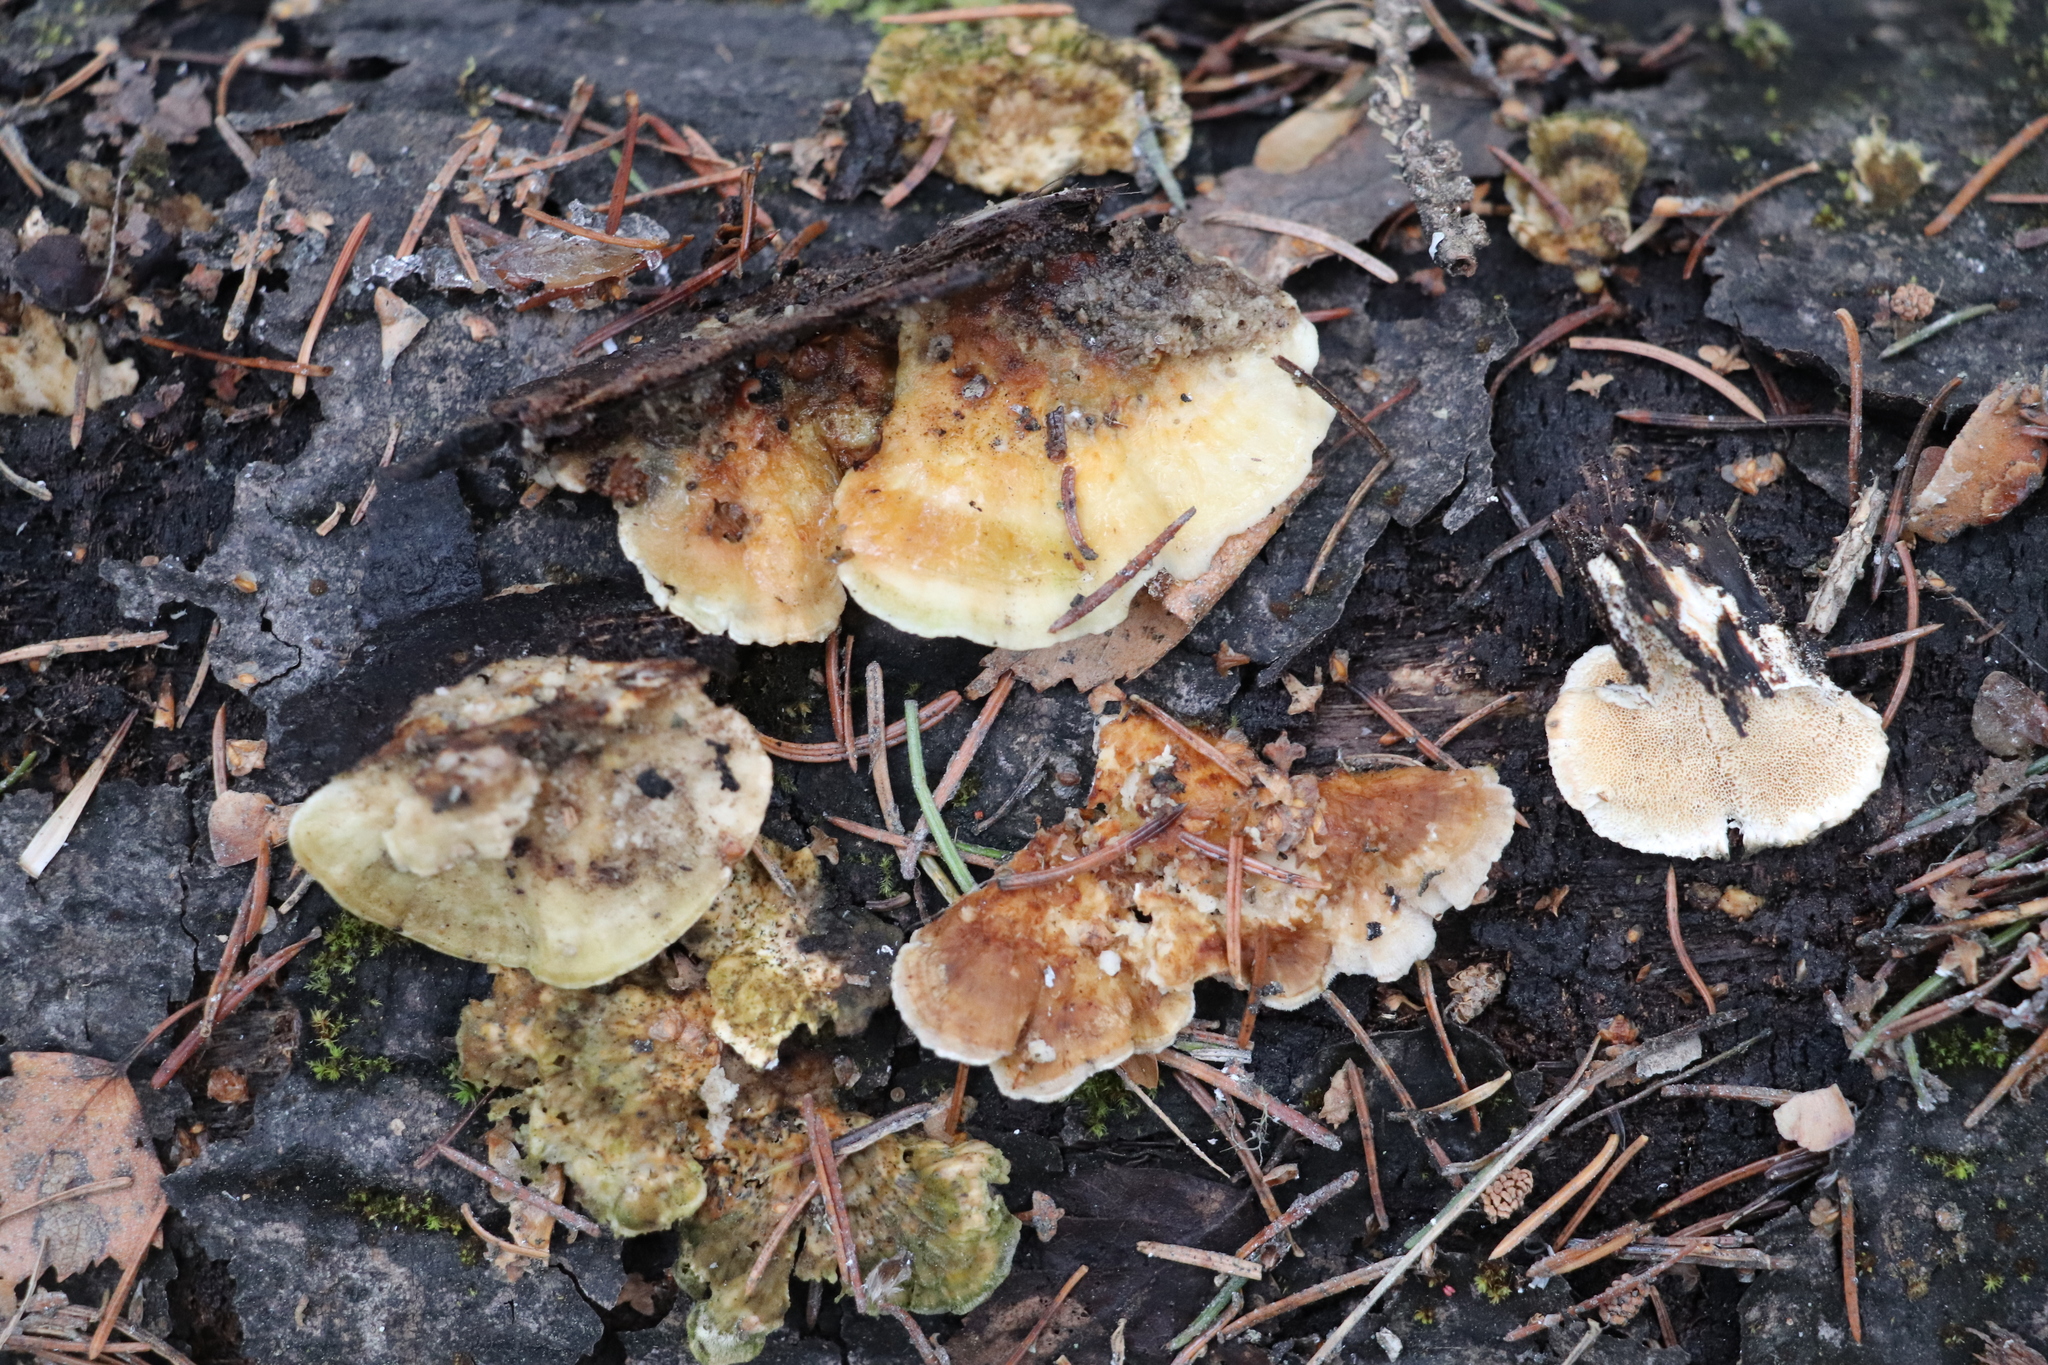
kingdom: Fungi
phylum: Basidiomycota
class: Agaricomycetes
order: Polyporales
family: Polyporaceae
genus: Trametes
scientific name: Trametes ochracea
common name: Ochre bracket
